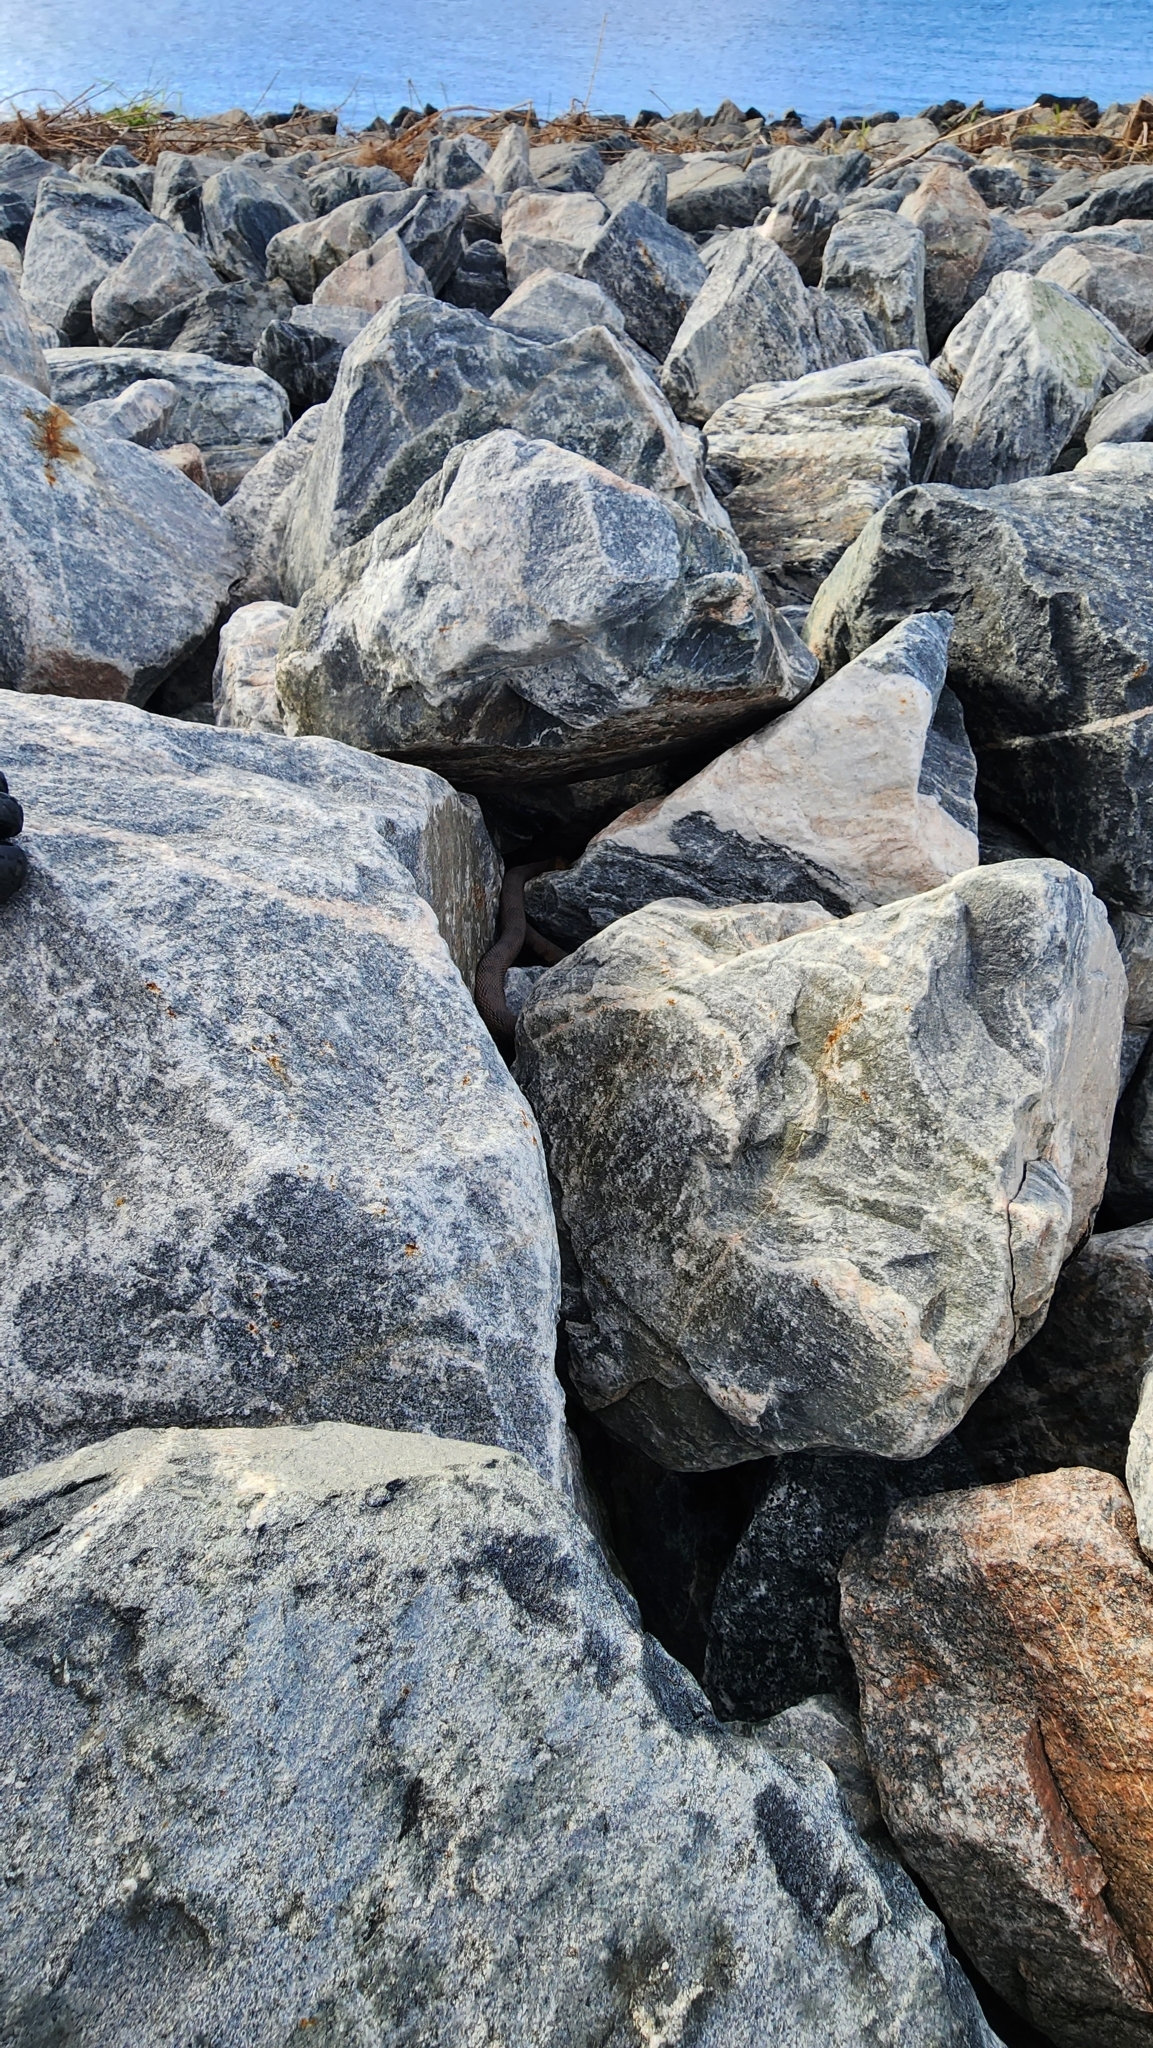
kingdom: Animalia
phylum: Chordata
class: Squamata
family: Colubridae
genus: Nerodia
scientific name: Nerodia taxispilota
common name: Brown water snake
